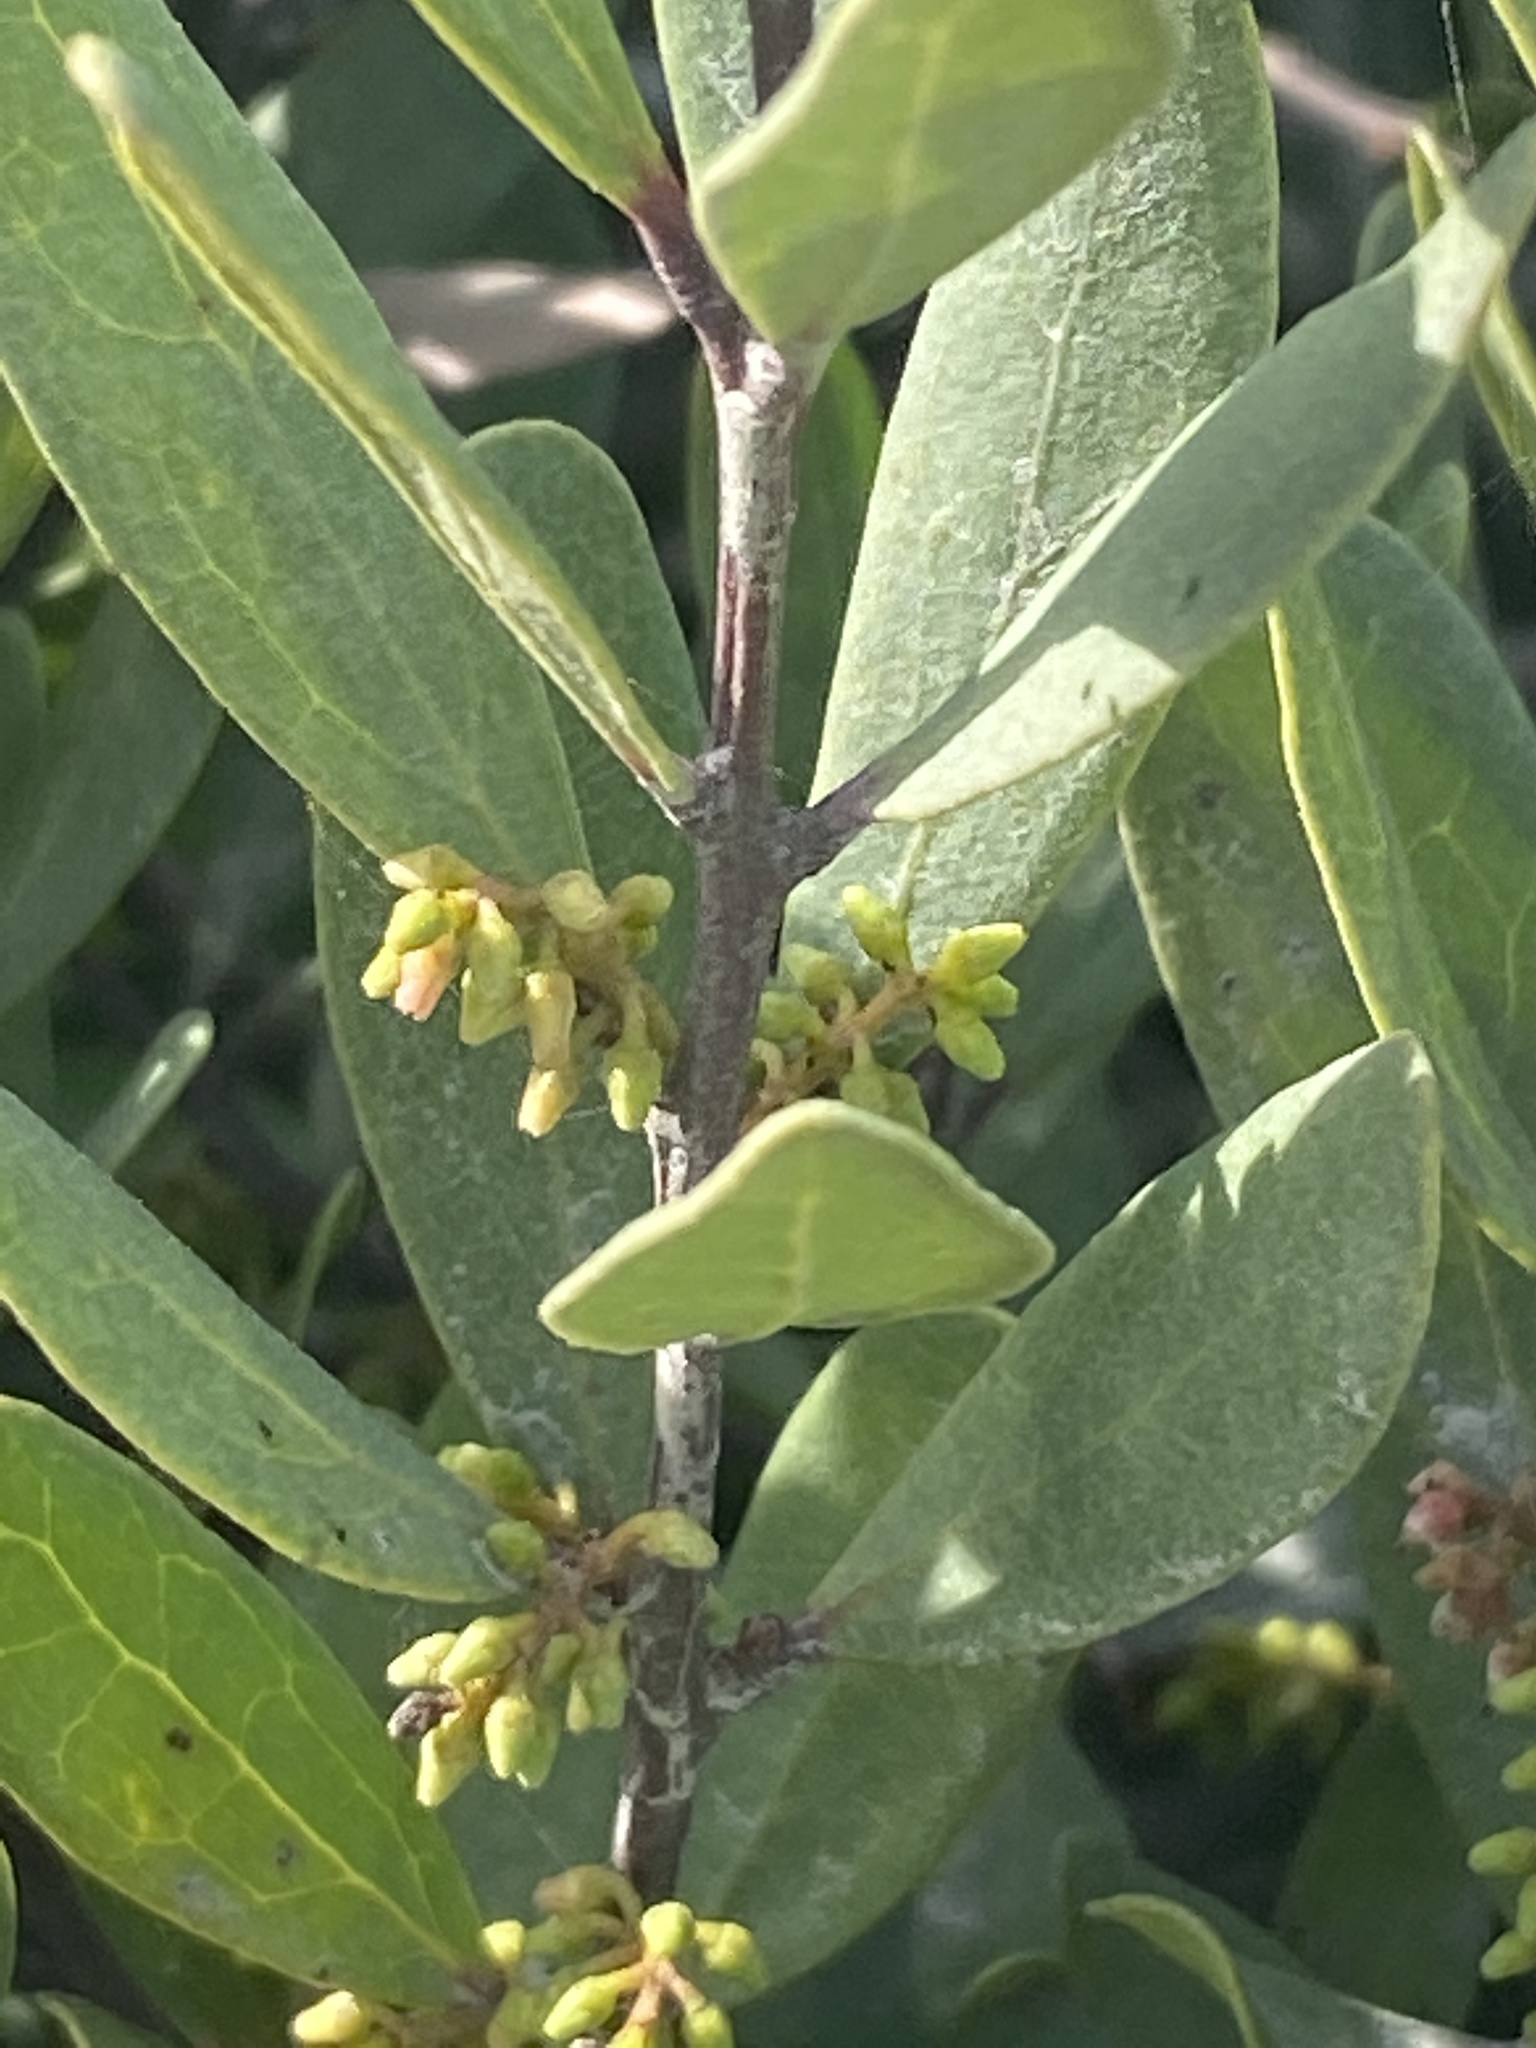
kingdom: Plantae
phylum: Tracheophyta
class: Magnoliopsida
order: Ericales
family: Ebenaceae
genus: Euclea
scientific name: Euclea racemosa
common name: Dune guarri
